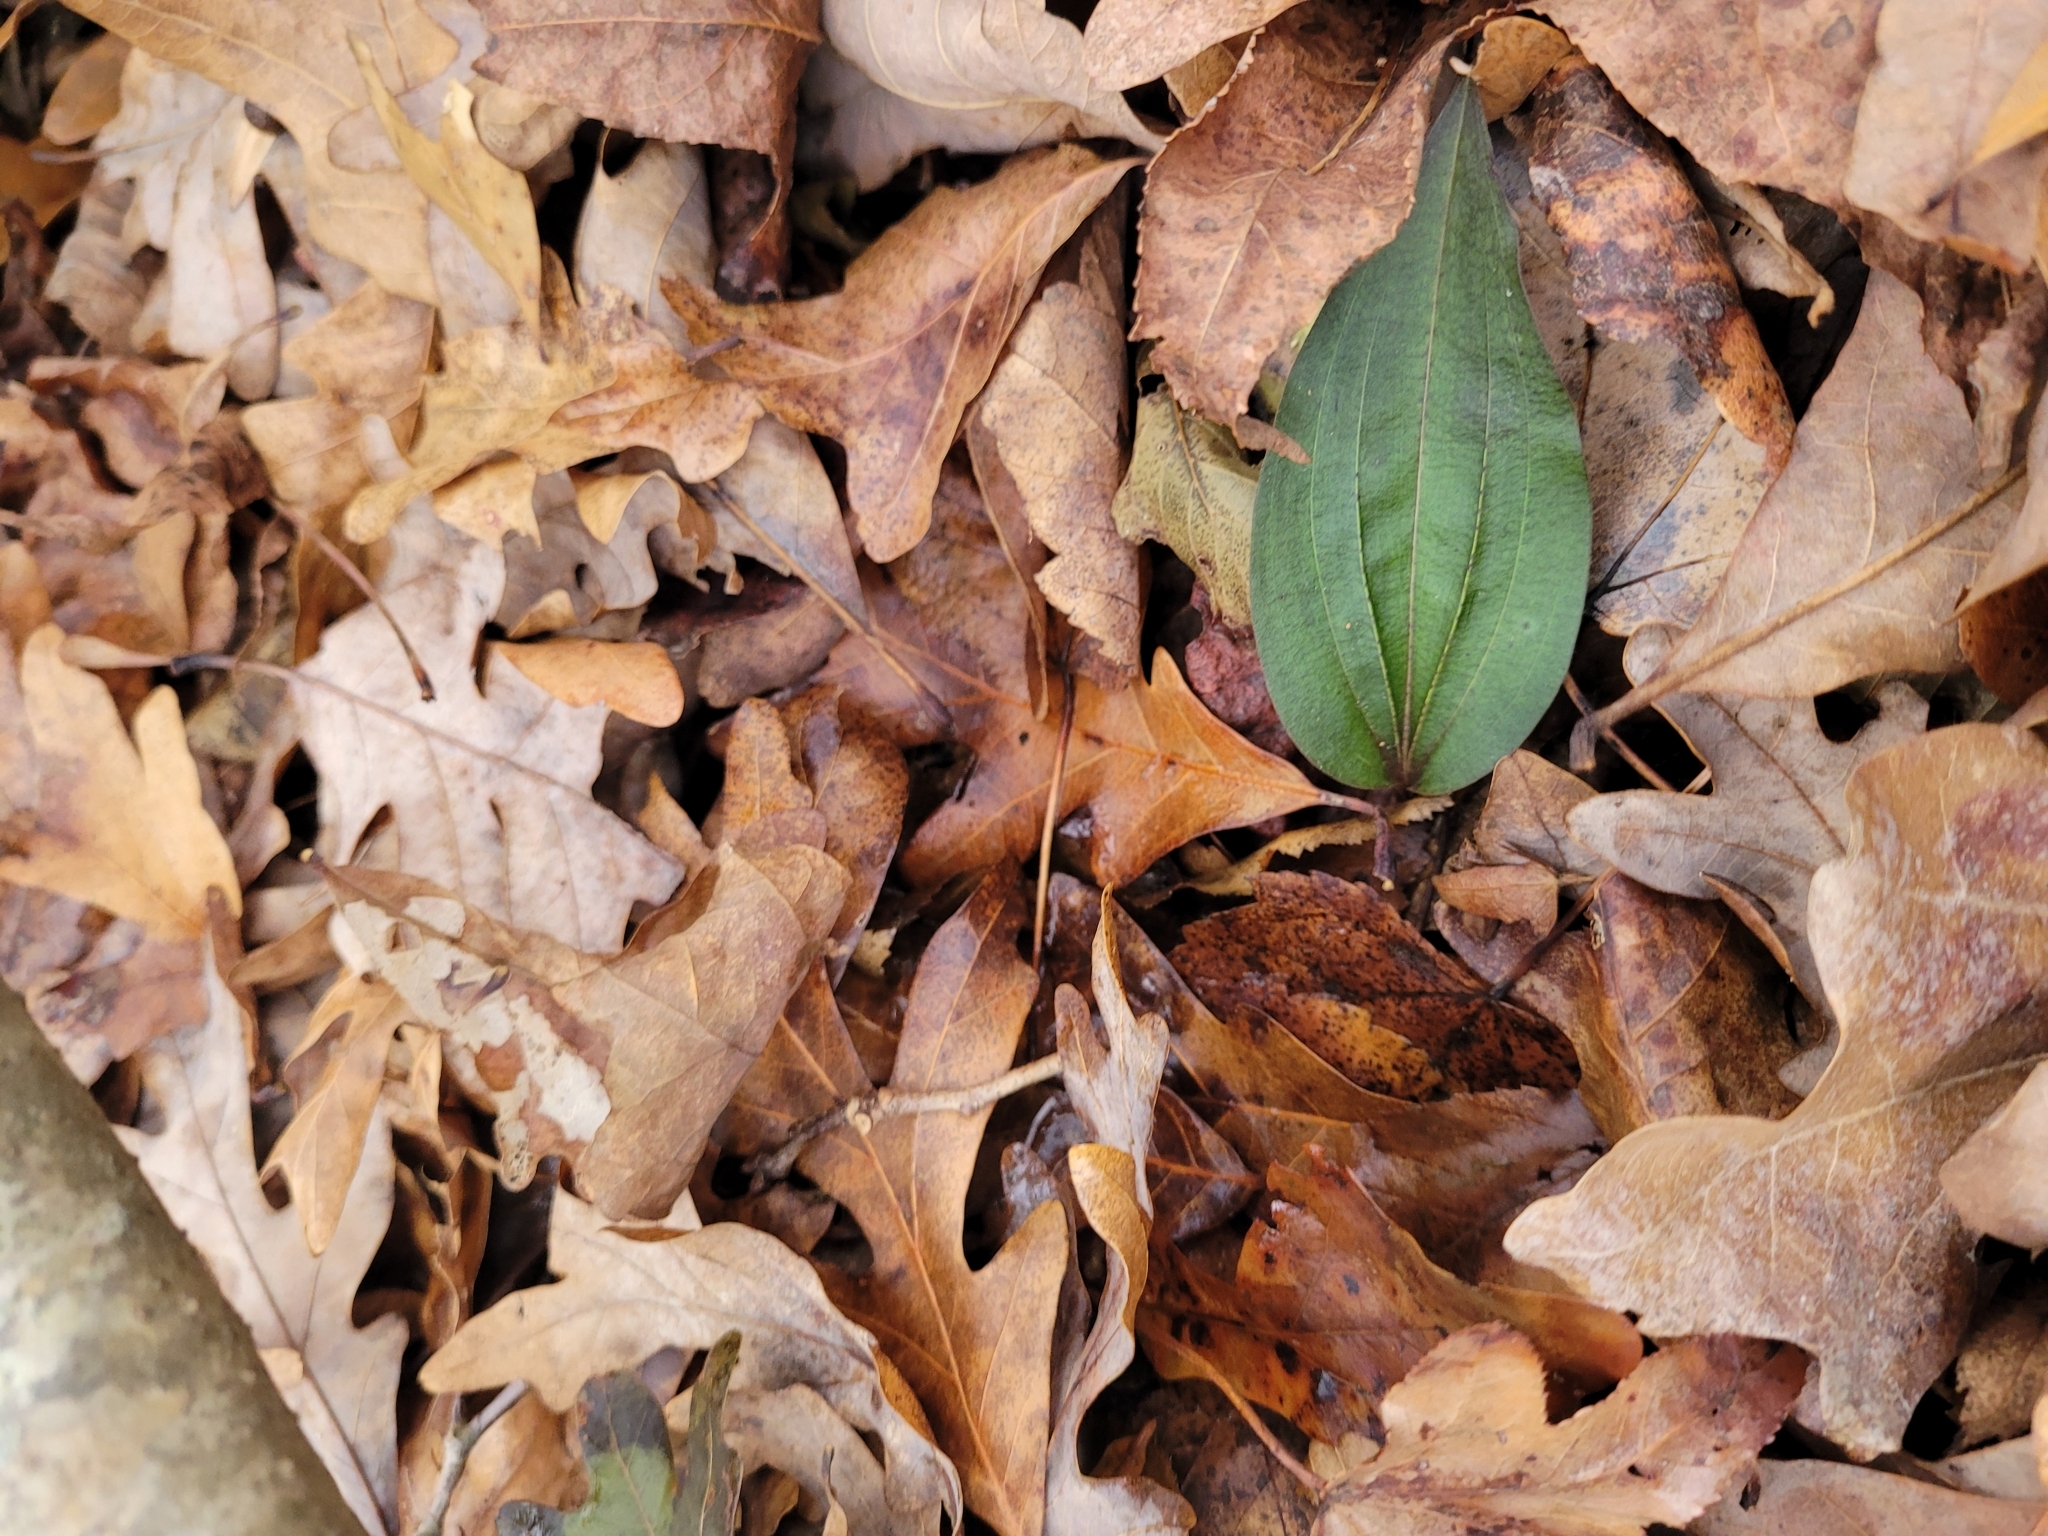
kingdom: Plantae
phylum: Tracheophyta
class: Liliopsida
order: Asparagales
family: Orchidaceae
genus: Tipularia
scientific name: Tipularia discolor
